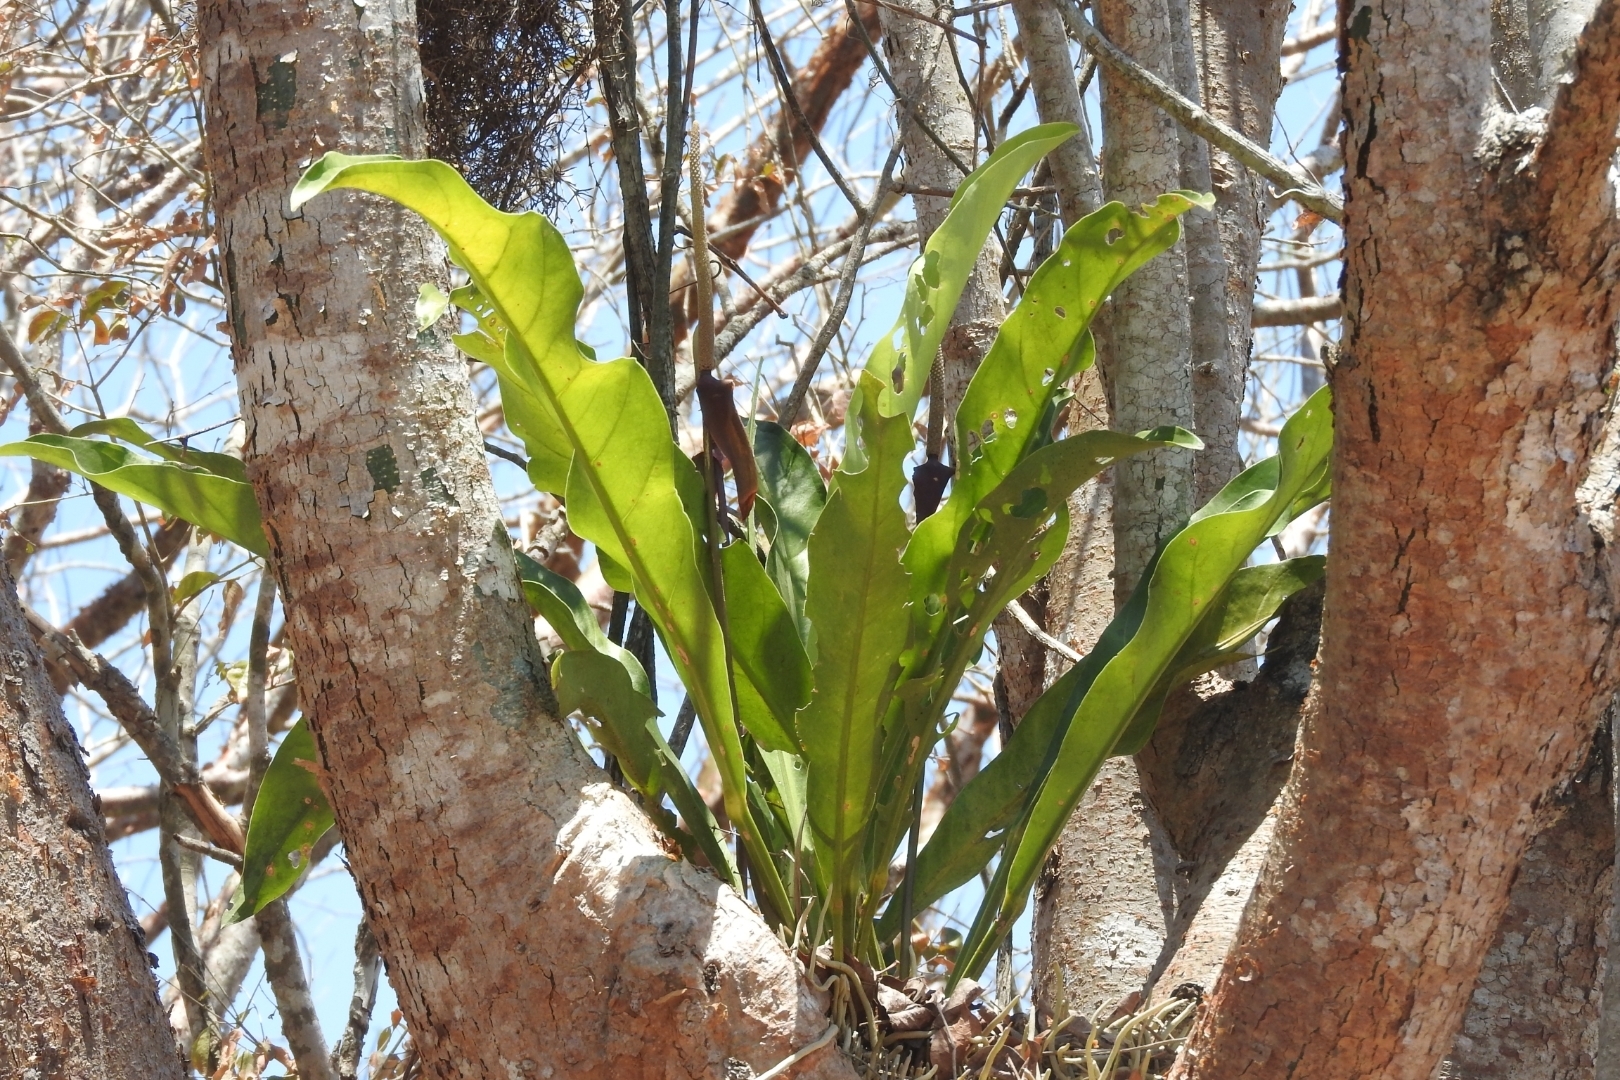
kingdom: Plantae
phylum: Tracheophyta
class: Liliopsida
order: Alismatales
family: Araceae
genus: Anthurium
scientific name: Anthurium schlechtendalii
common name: Laceleaf
